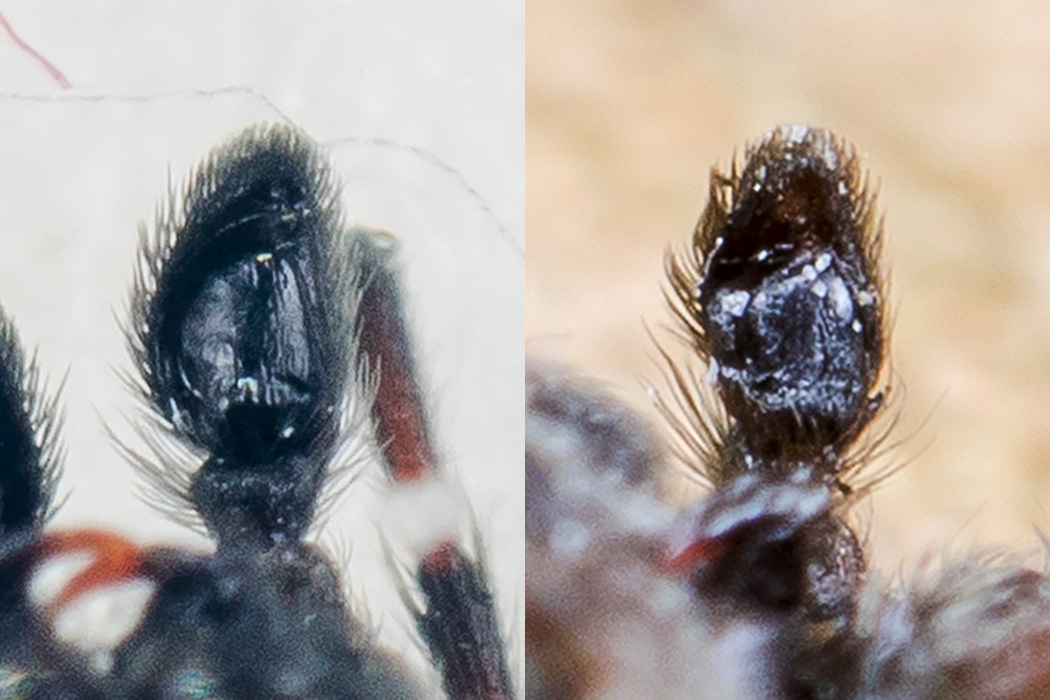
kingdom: Animalia
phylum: Arthropoda
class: Arachnida
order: Araneae
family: Salticidae
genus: Attulus
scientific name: Attulus talgarensis
